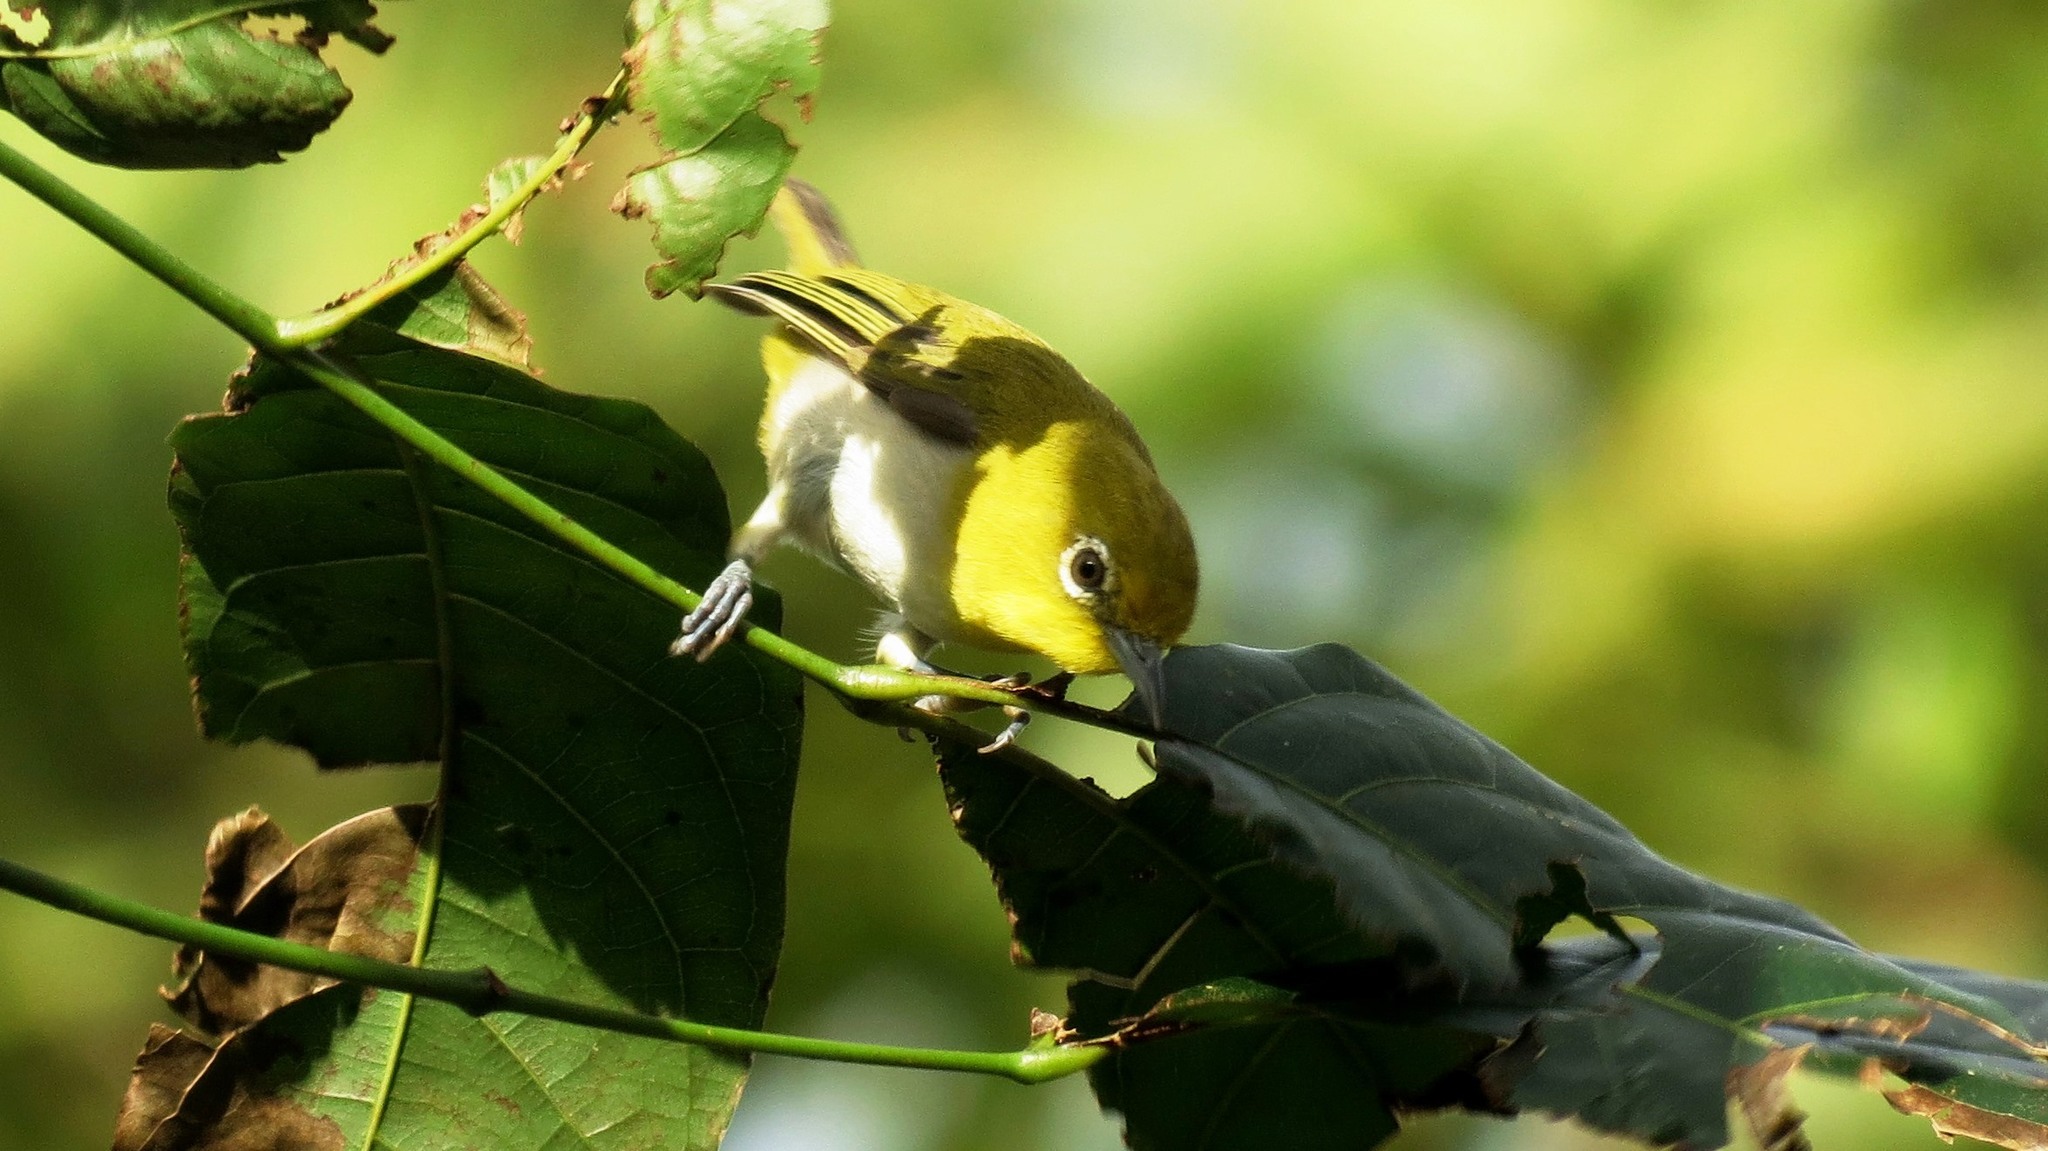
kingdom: Animalia
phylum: Chordata
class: Aves
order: Passeriformes
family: Zosteropidae
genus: Zosterops
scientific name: Zosterops meyeni
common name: Lowland white-eye
